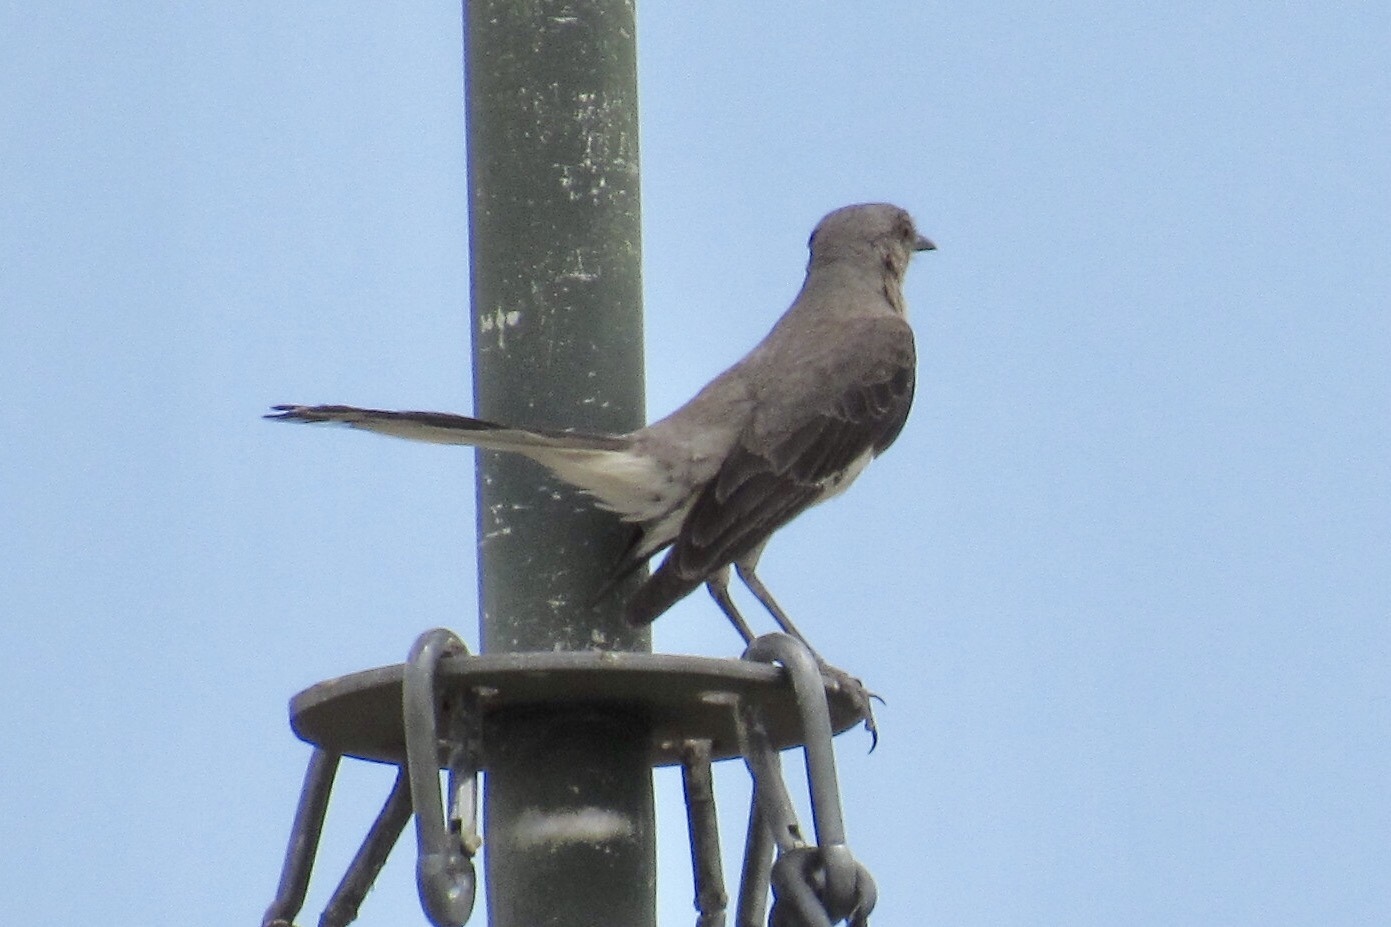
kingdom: Animalia
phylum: Chordata
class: Aves
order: Passeriformes
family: Mimidae
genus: Mimus
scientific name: Mimus polyglottos
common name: Northern mockingbird
